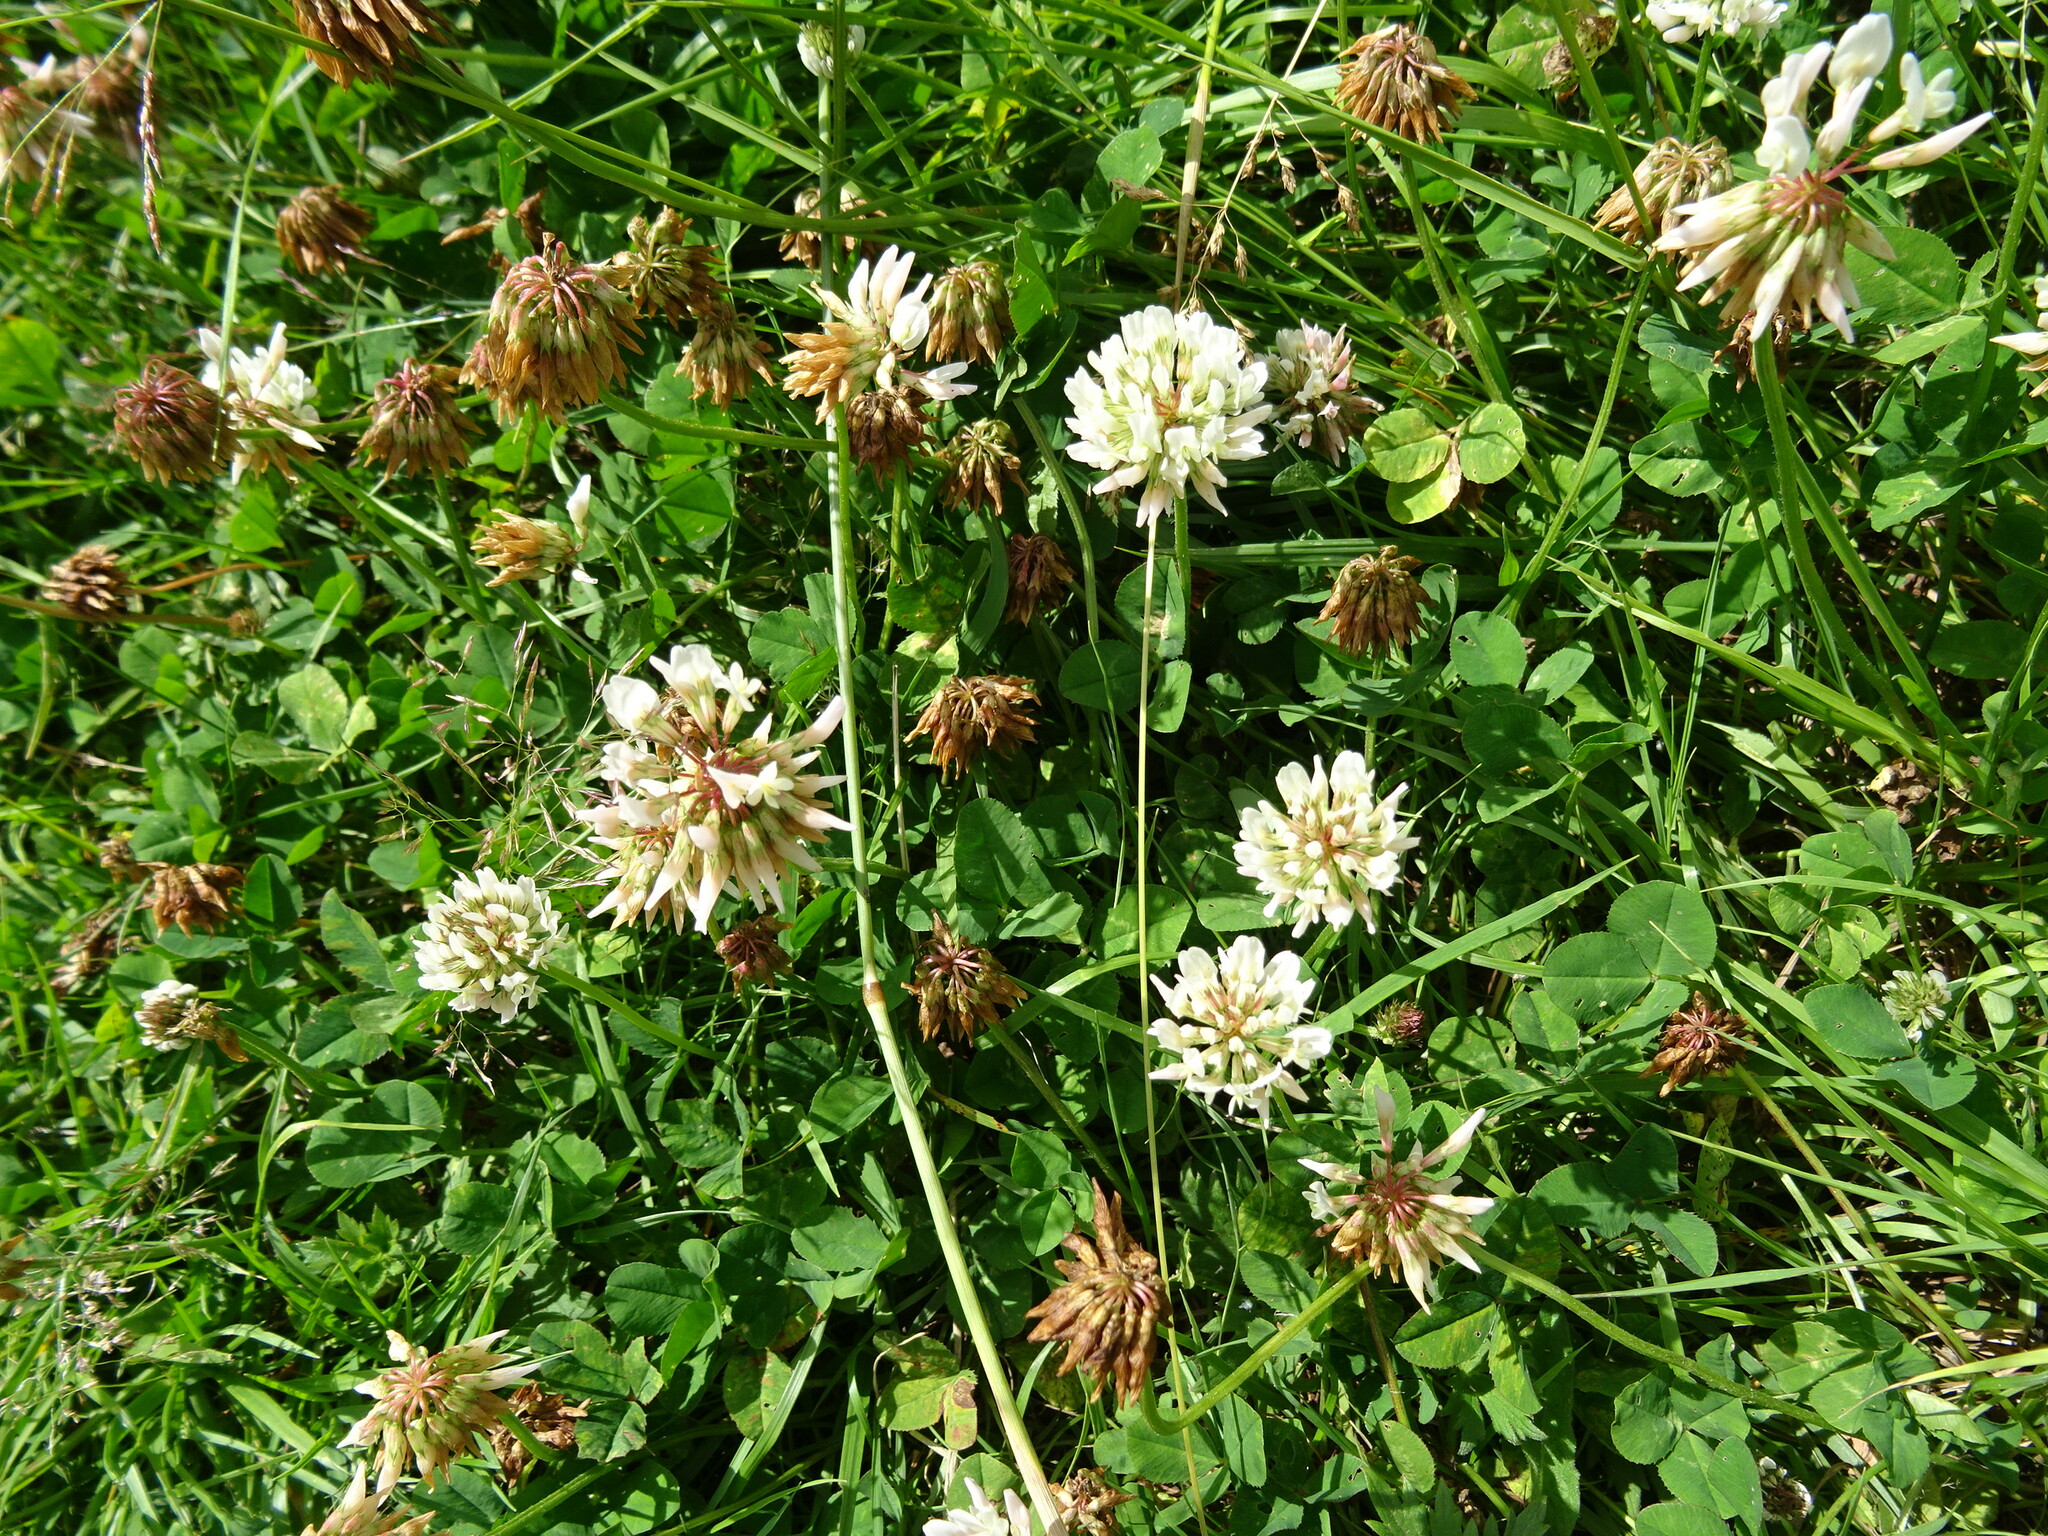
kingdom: Plantae
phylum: Tracheophyta
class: Magnoliopsida
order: Fabales
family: Fabaceae
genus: Trifolium
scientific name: Trifolium repens
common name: White clover
